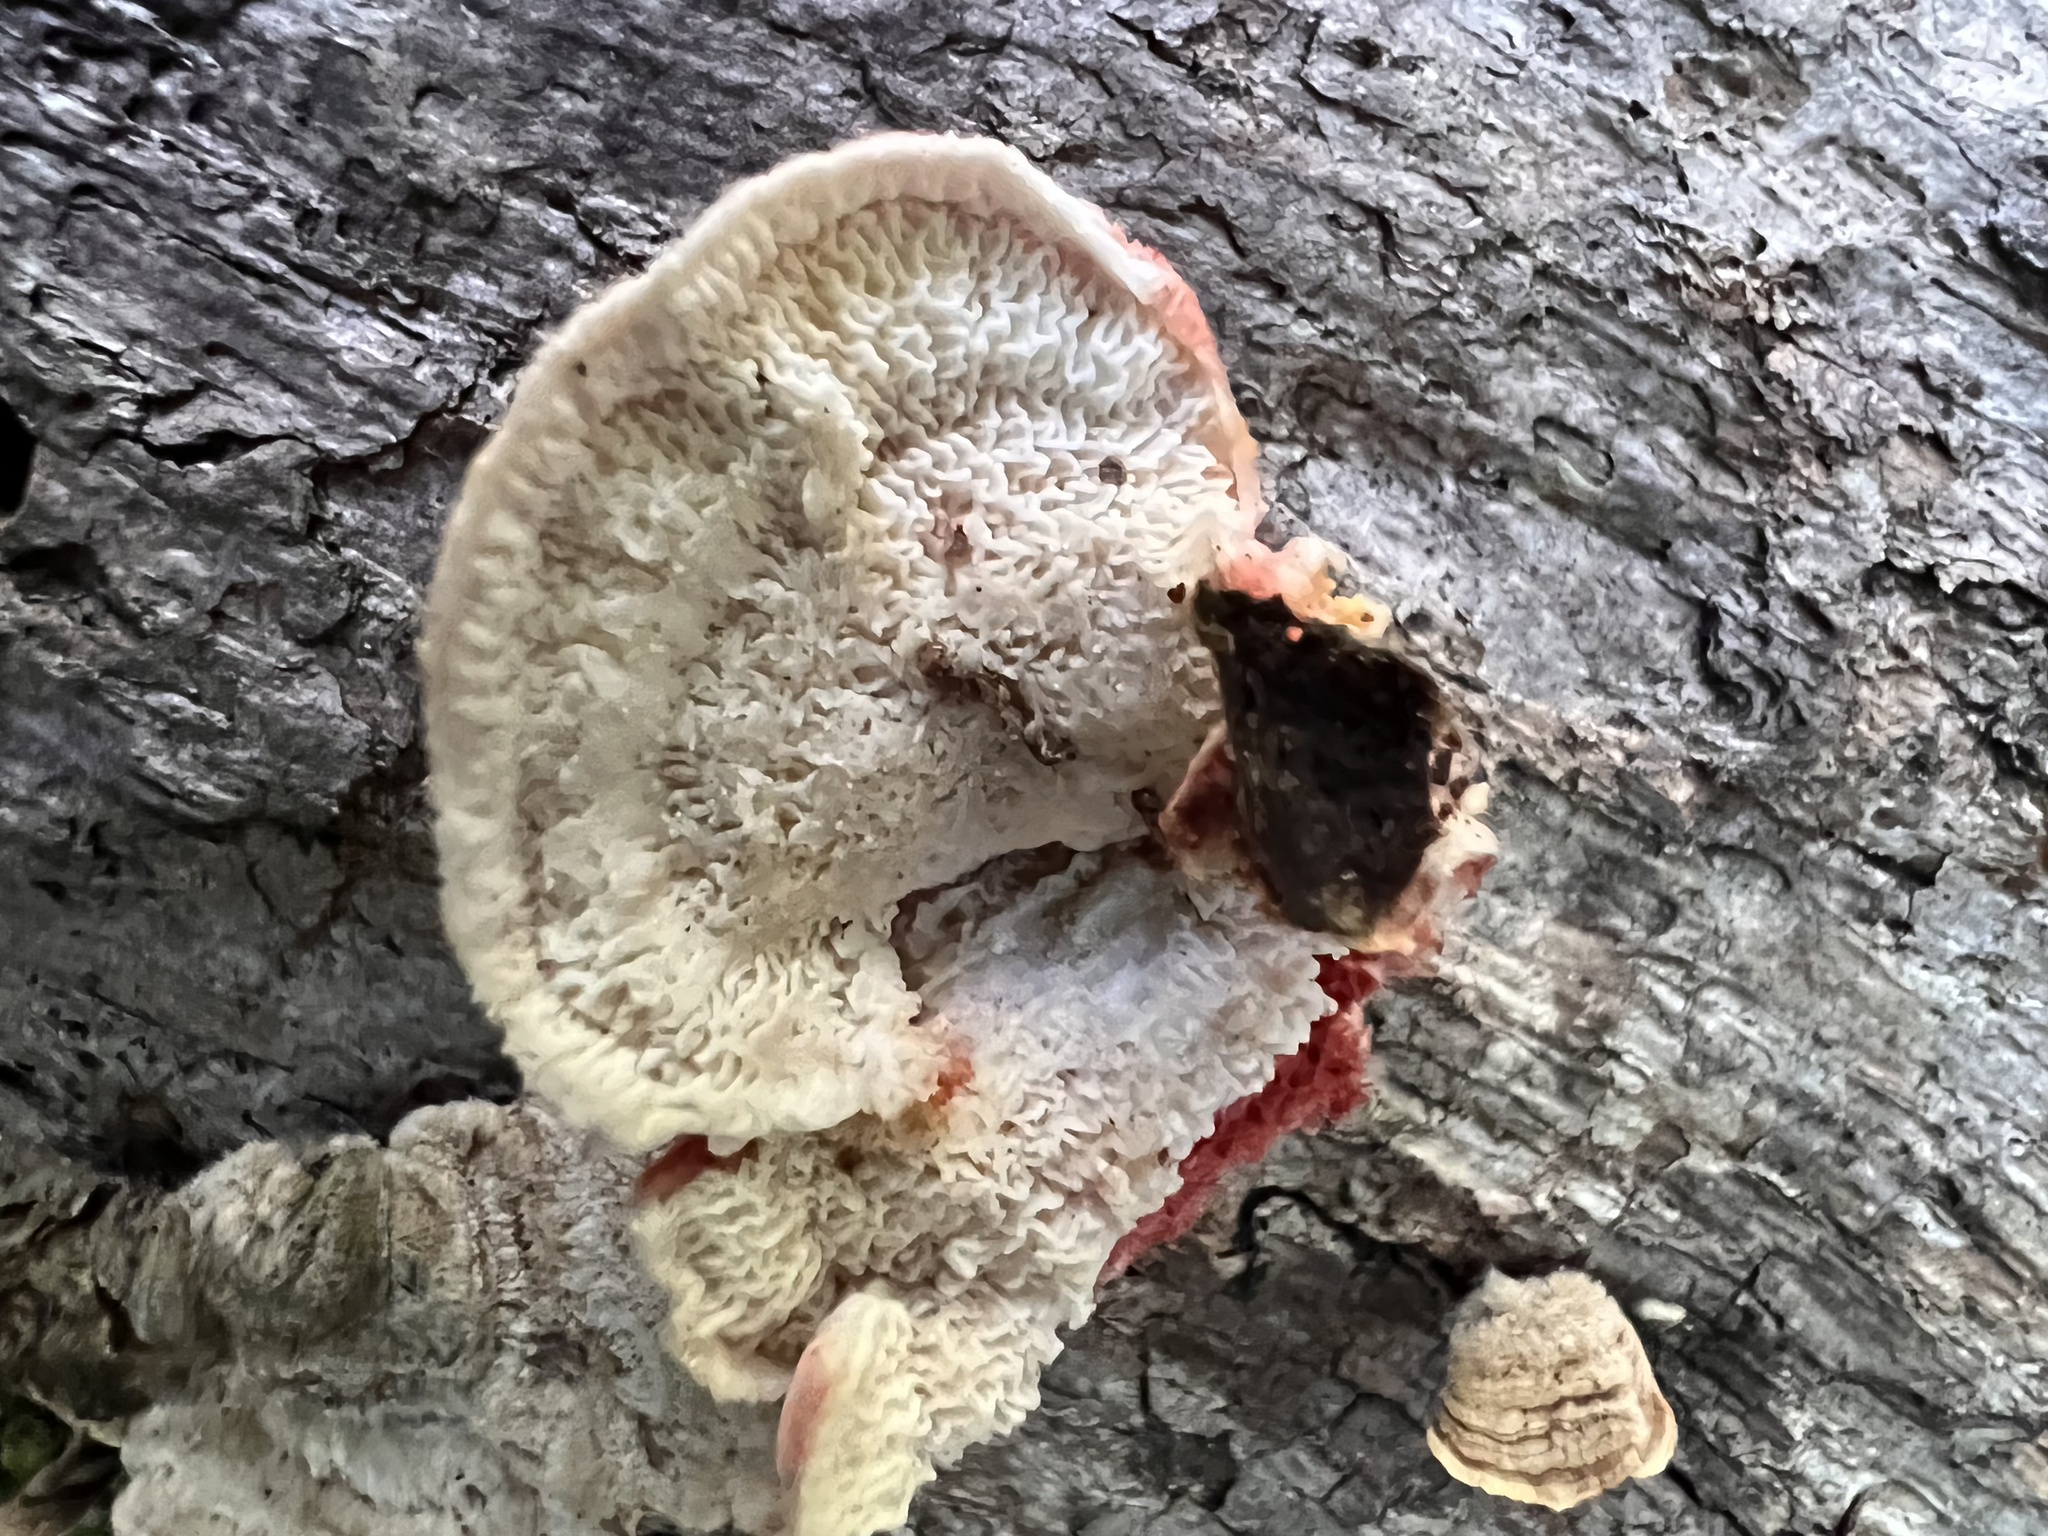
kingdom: Fungi
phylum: Basidiomycota
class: Agaricomycetes
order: Polyporales
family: Irpicaceae
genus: Byssomerulius
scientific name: Byssomerulius incarnatus
